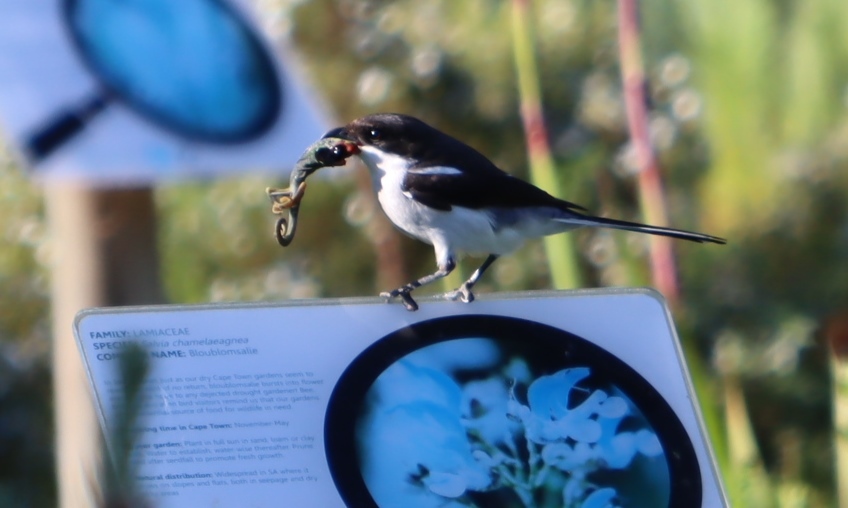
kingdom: Animalia
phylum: Chordata
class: Squamata
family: Chamaeleonidae
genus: Bradypodion
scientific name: Bradypodion pumilum
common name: Cape dwarf chameleon
